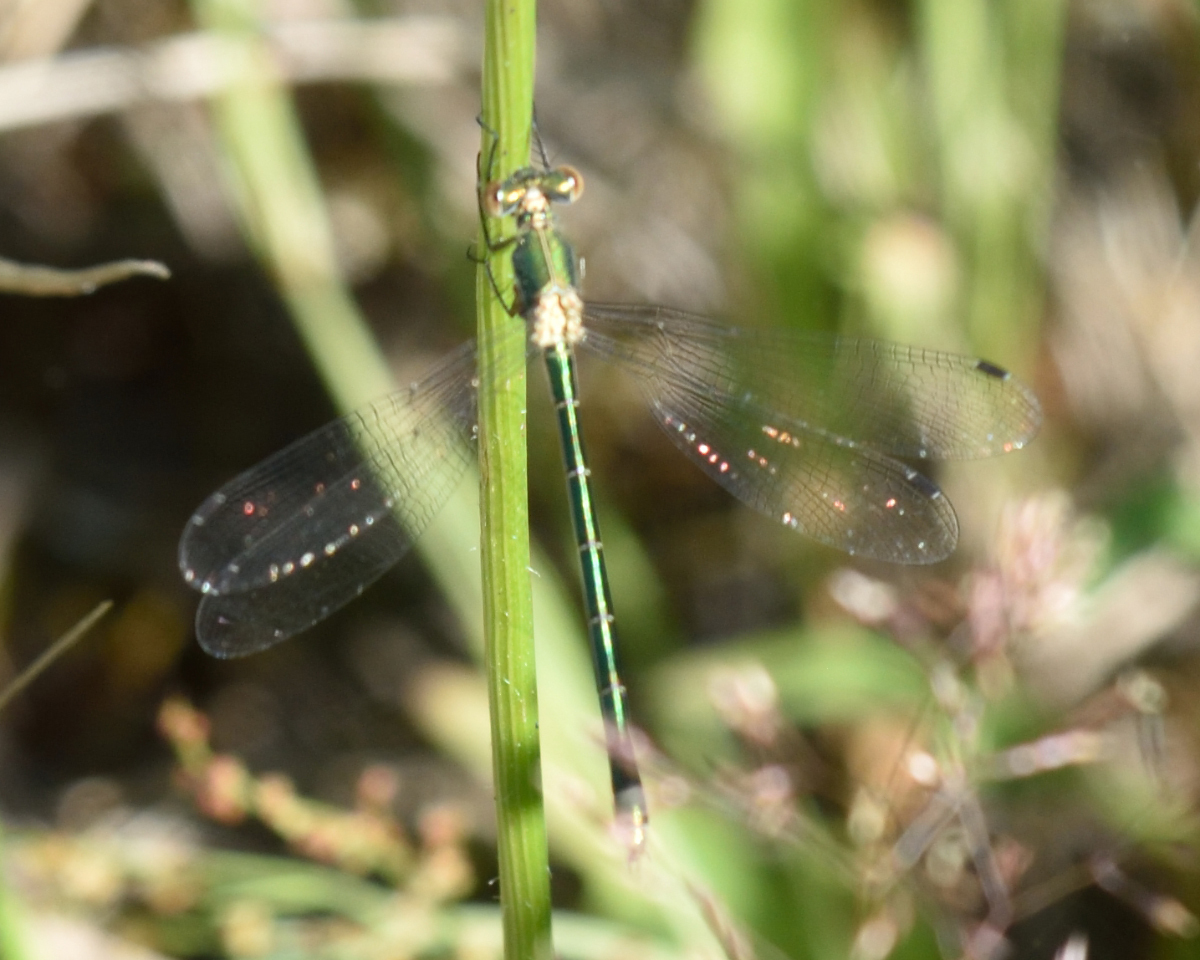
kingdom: Animalia
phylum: Arthropoda
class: Insecta
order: Odonata
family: Lestidae
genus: Lestes
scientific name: Lestes dryas
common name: Scarce emerald damselfly
